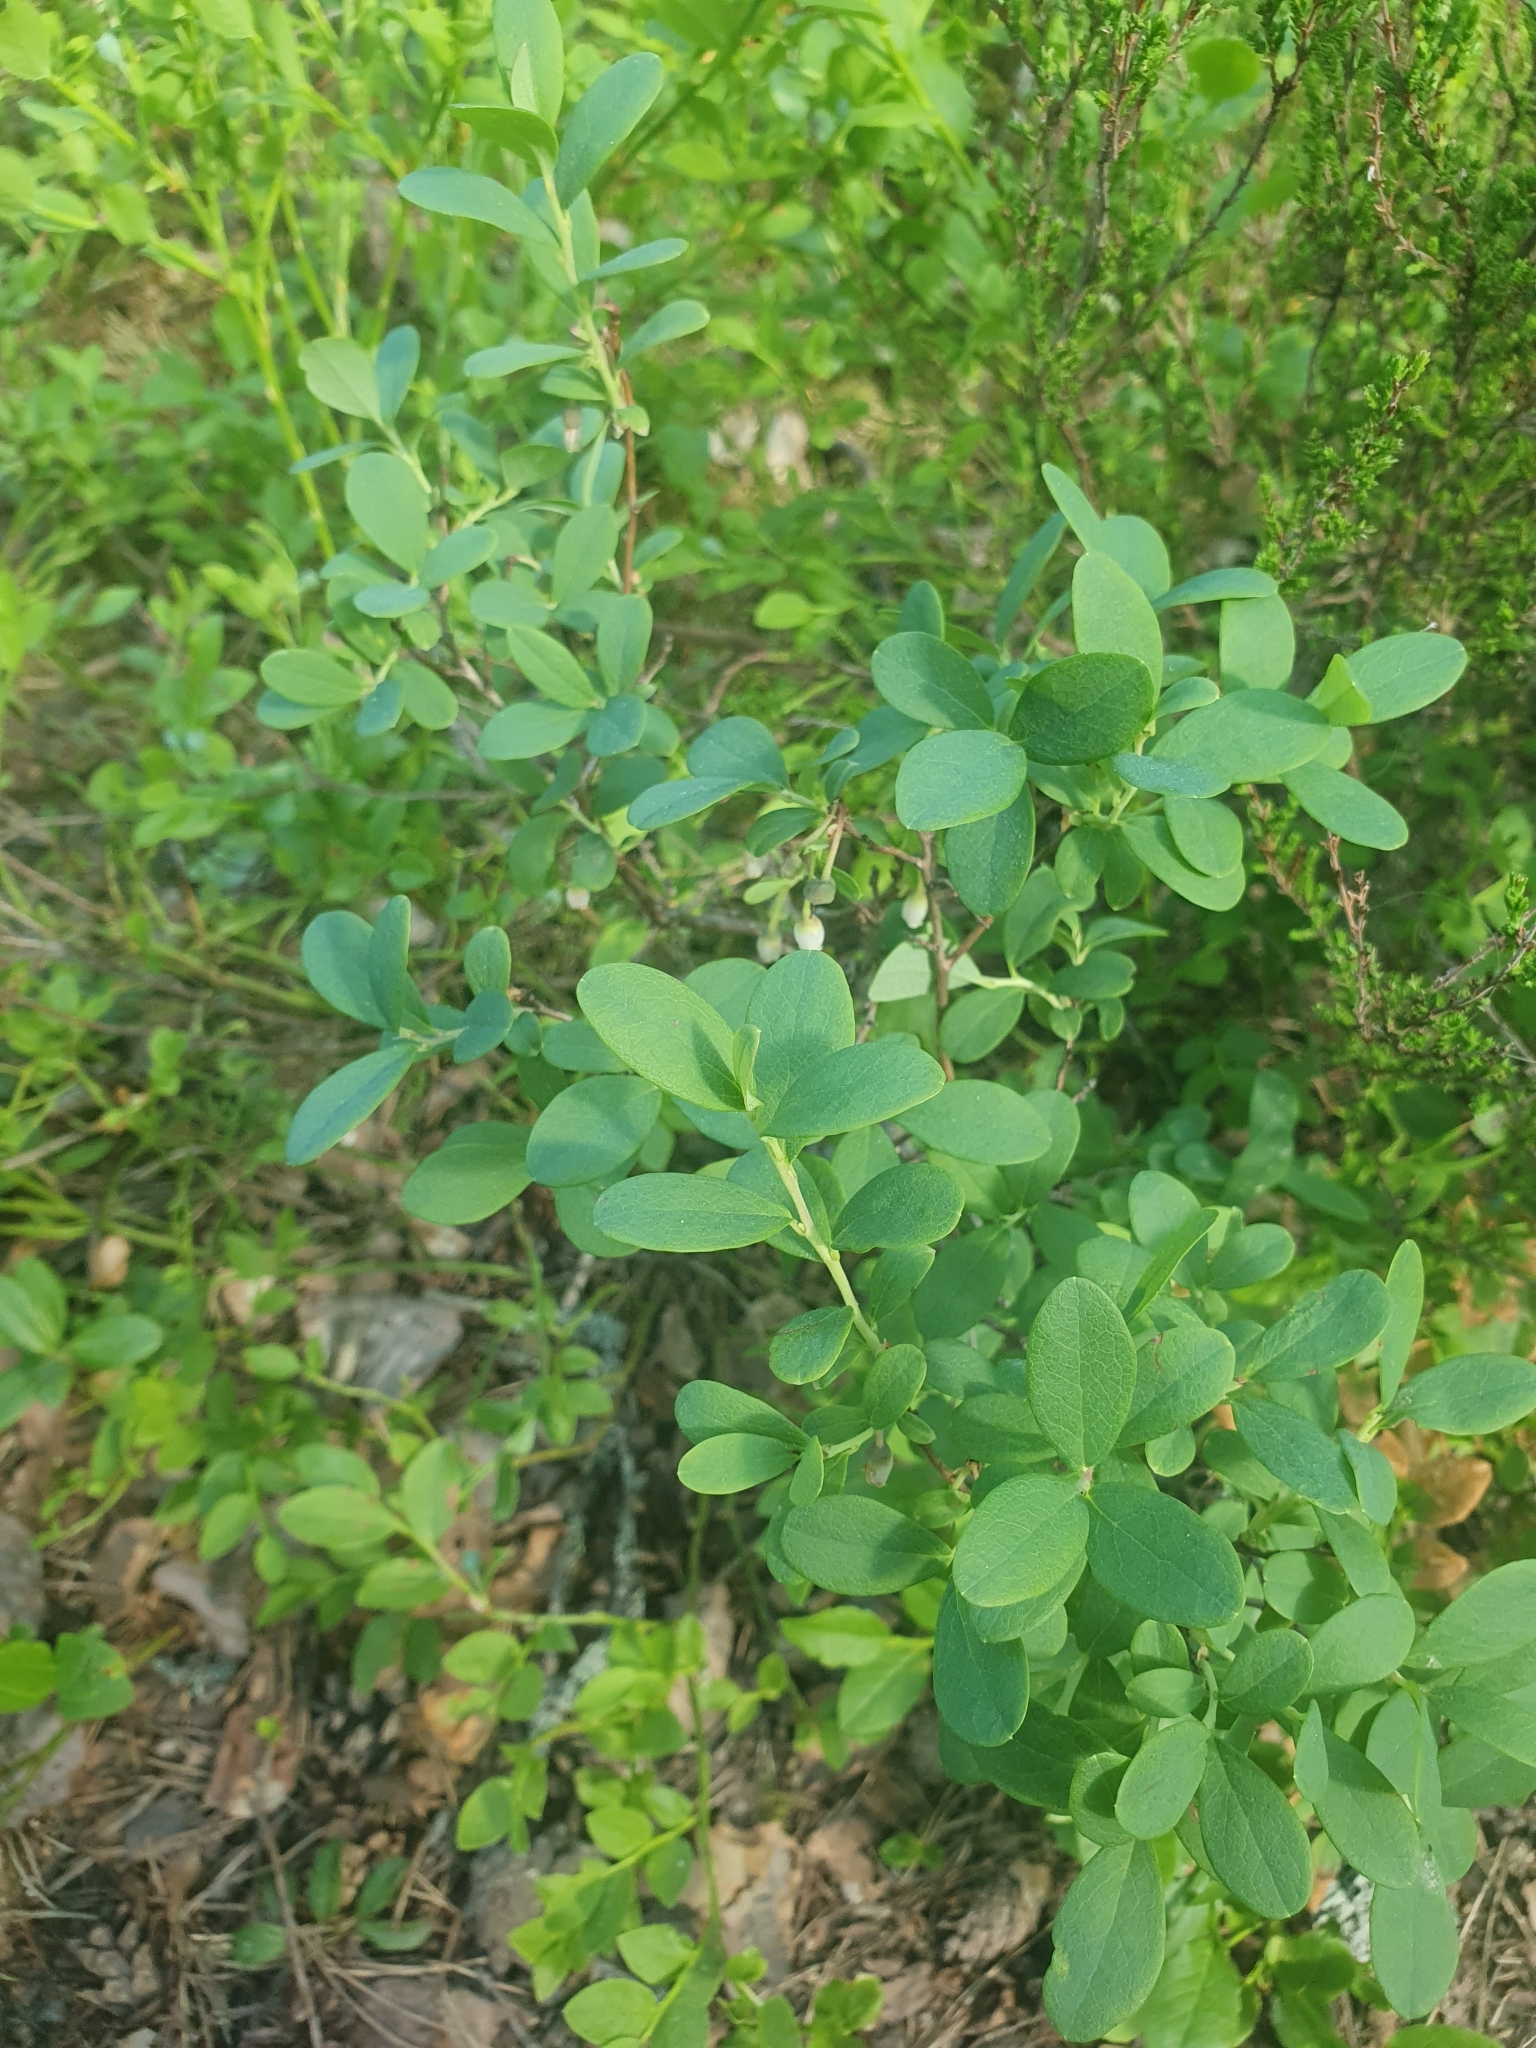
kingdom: Plantae
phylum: Tracheophyta
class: Magnoliopsida
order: Ericales
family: Ericaceae
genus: Vaccinium
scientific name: Vaccinium uliginosum
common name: Bog bilberry
